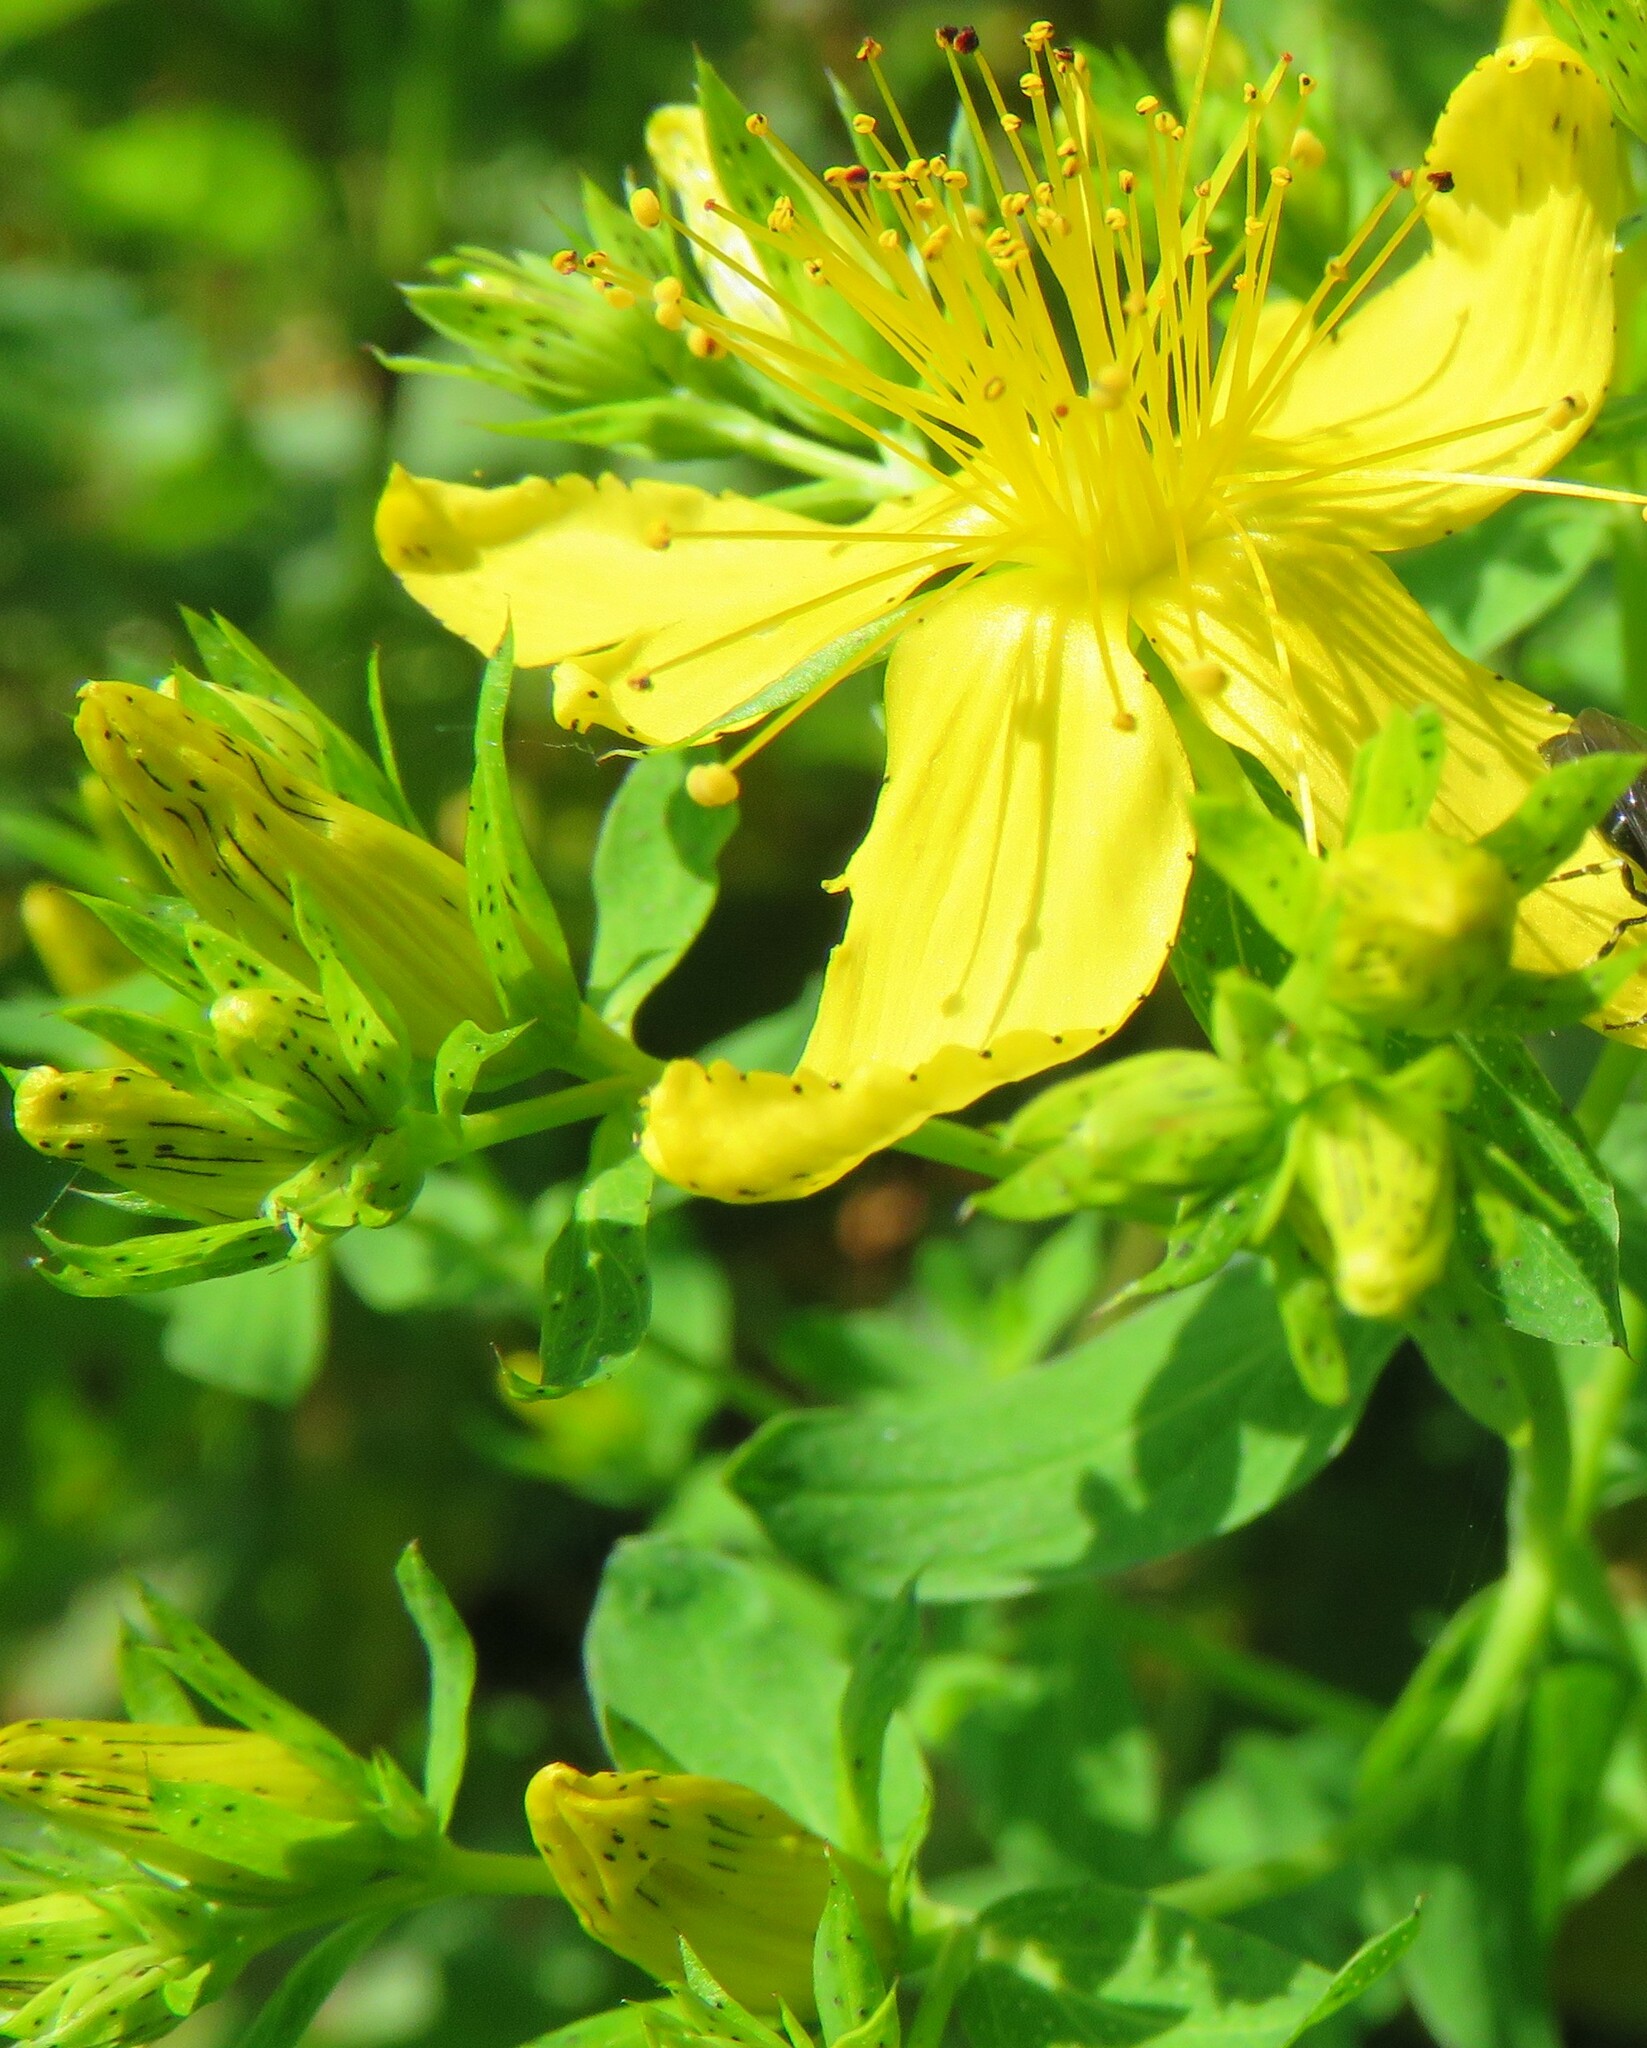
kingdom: Plantae
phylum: Tracheophyta
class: Magnoliopsida
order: Malpighiales
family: Hypericaceae
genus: Hypericum
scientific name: Hypericum perforatum
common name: Common st. johnswort
